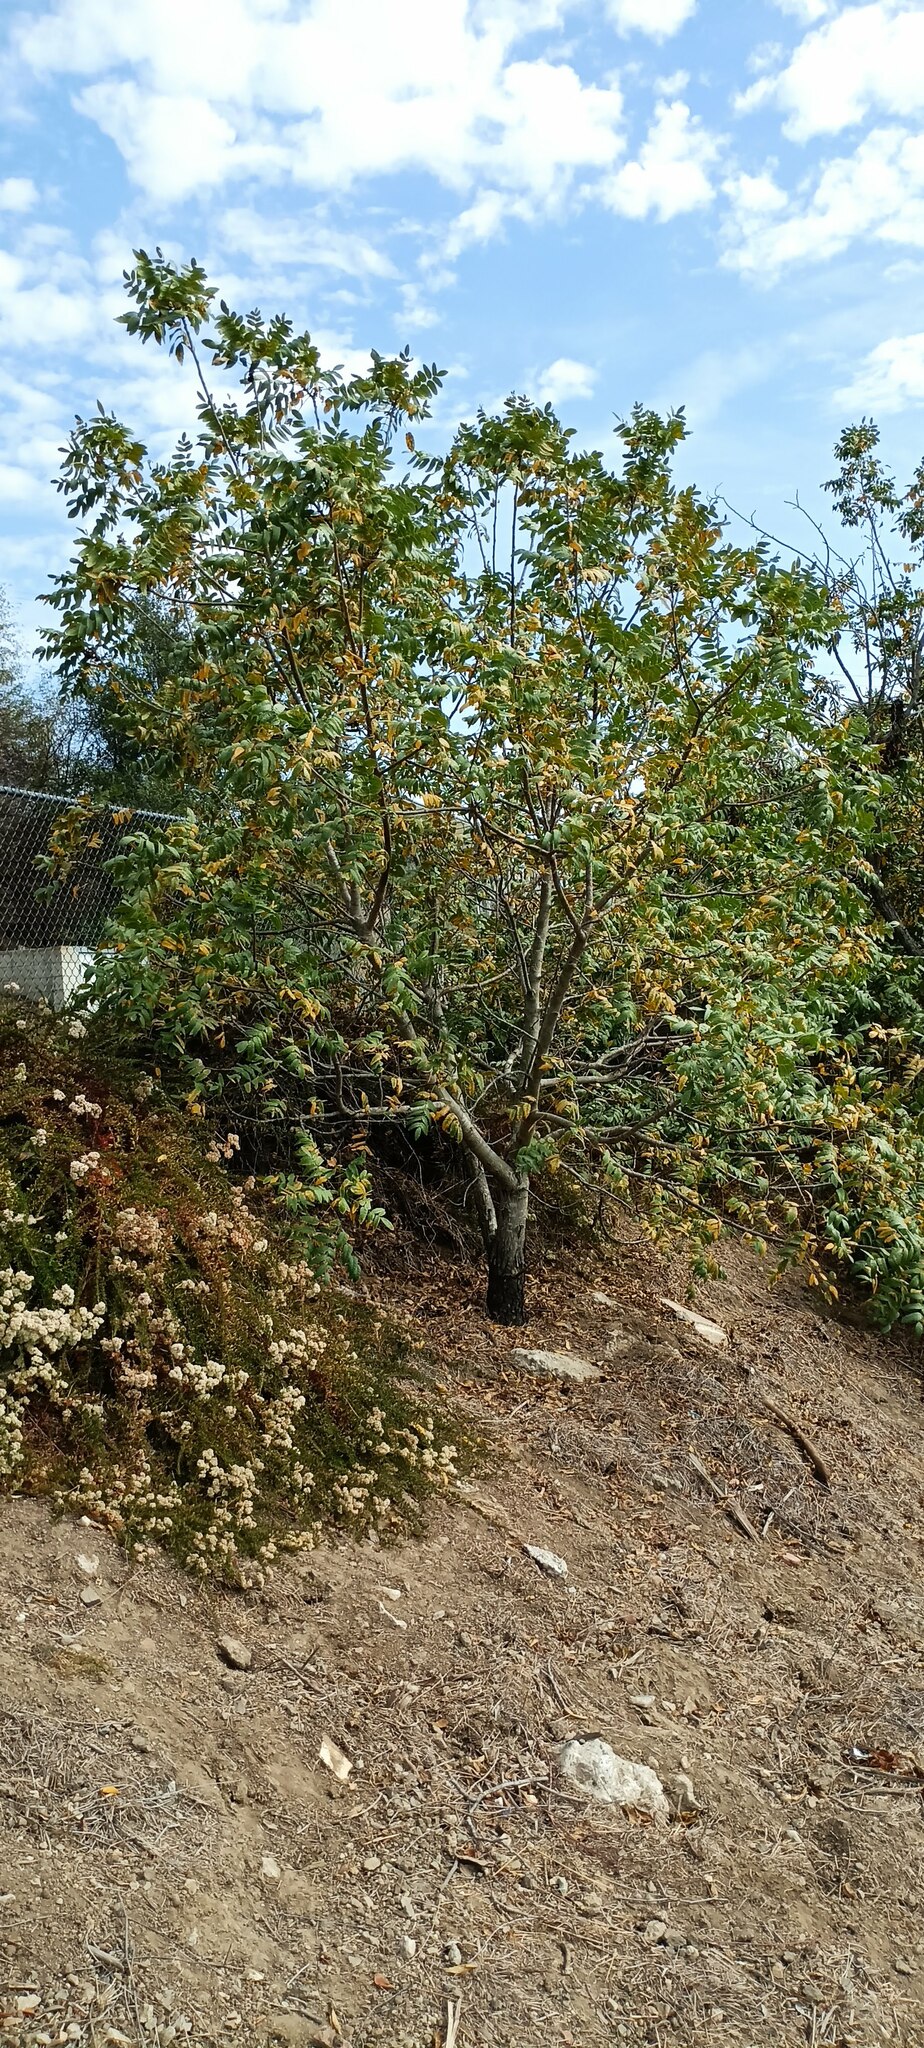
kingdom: Plantae
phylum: Tracheophyta
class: Magnoliopsida
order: Fagales
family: Juglandaceae
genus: Juglans
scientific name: Juglans californica
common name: Southern california black walnut
